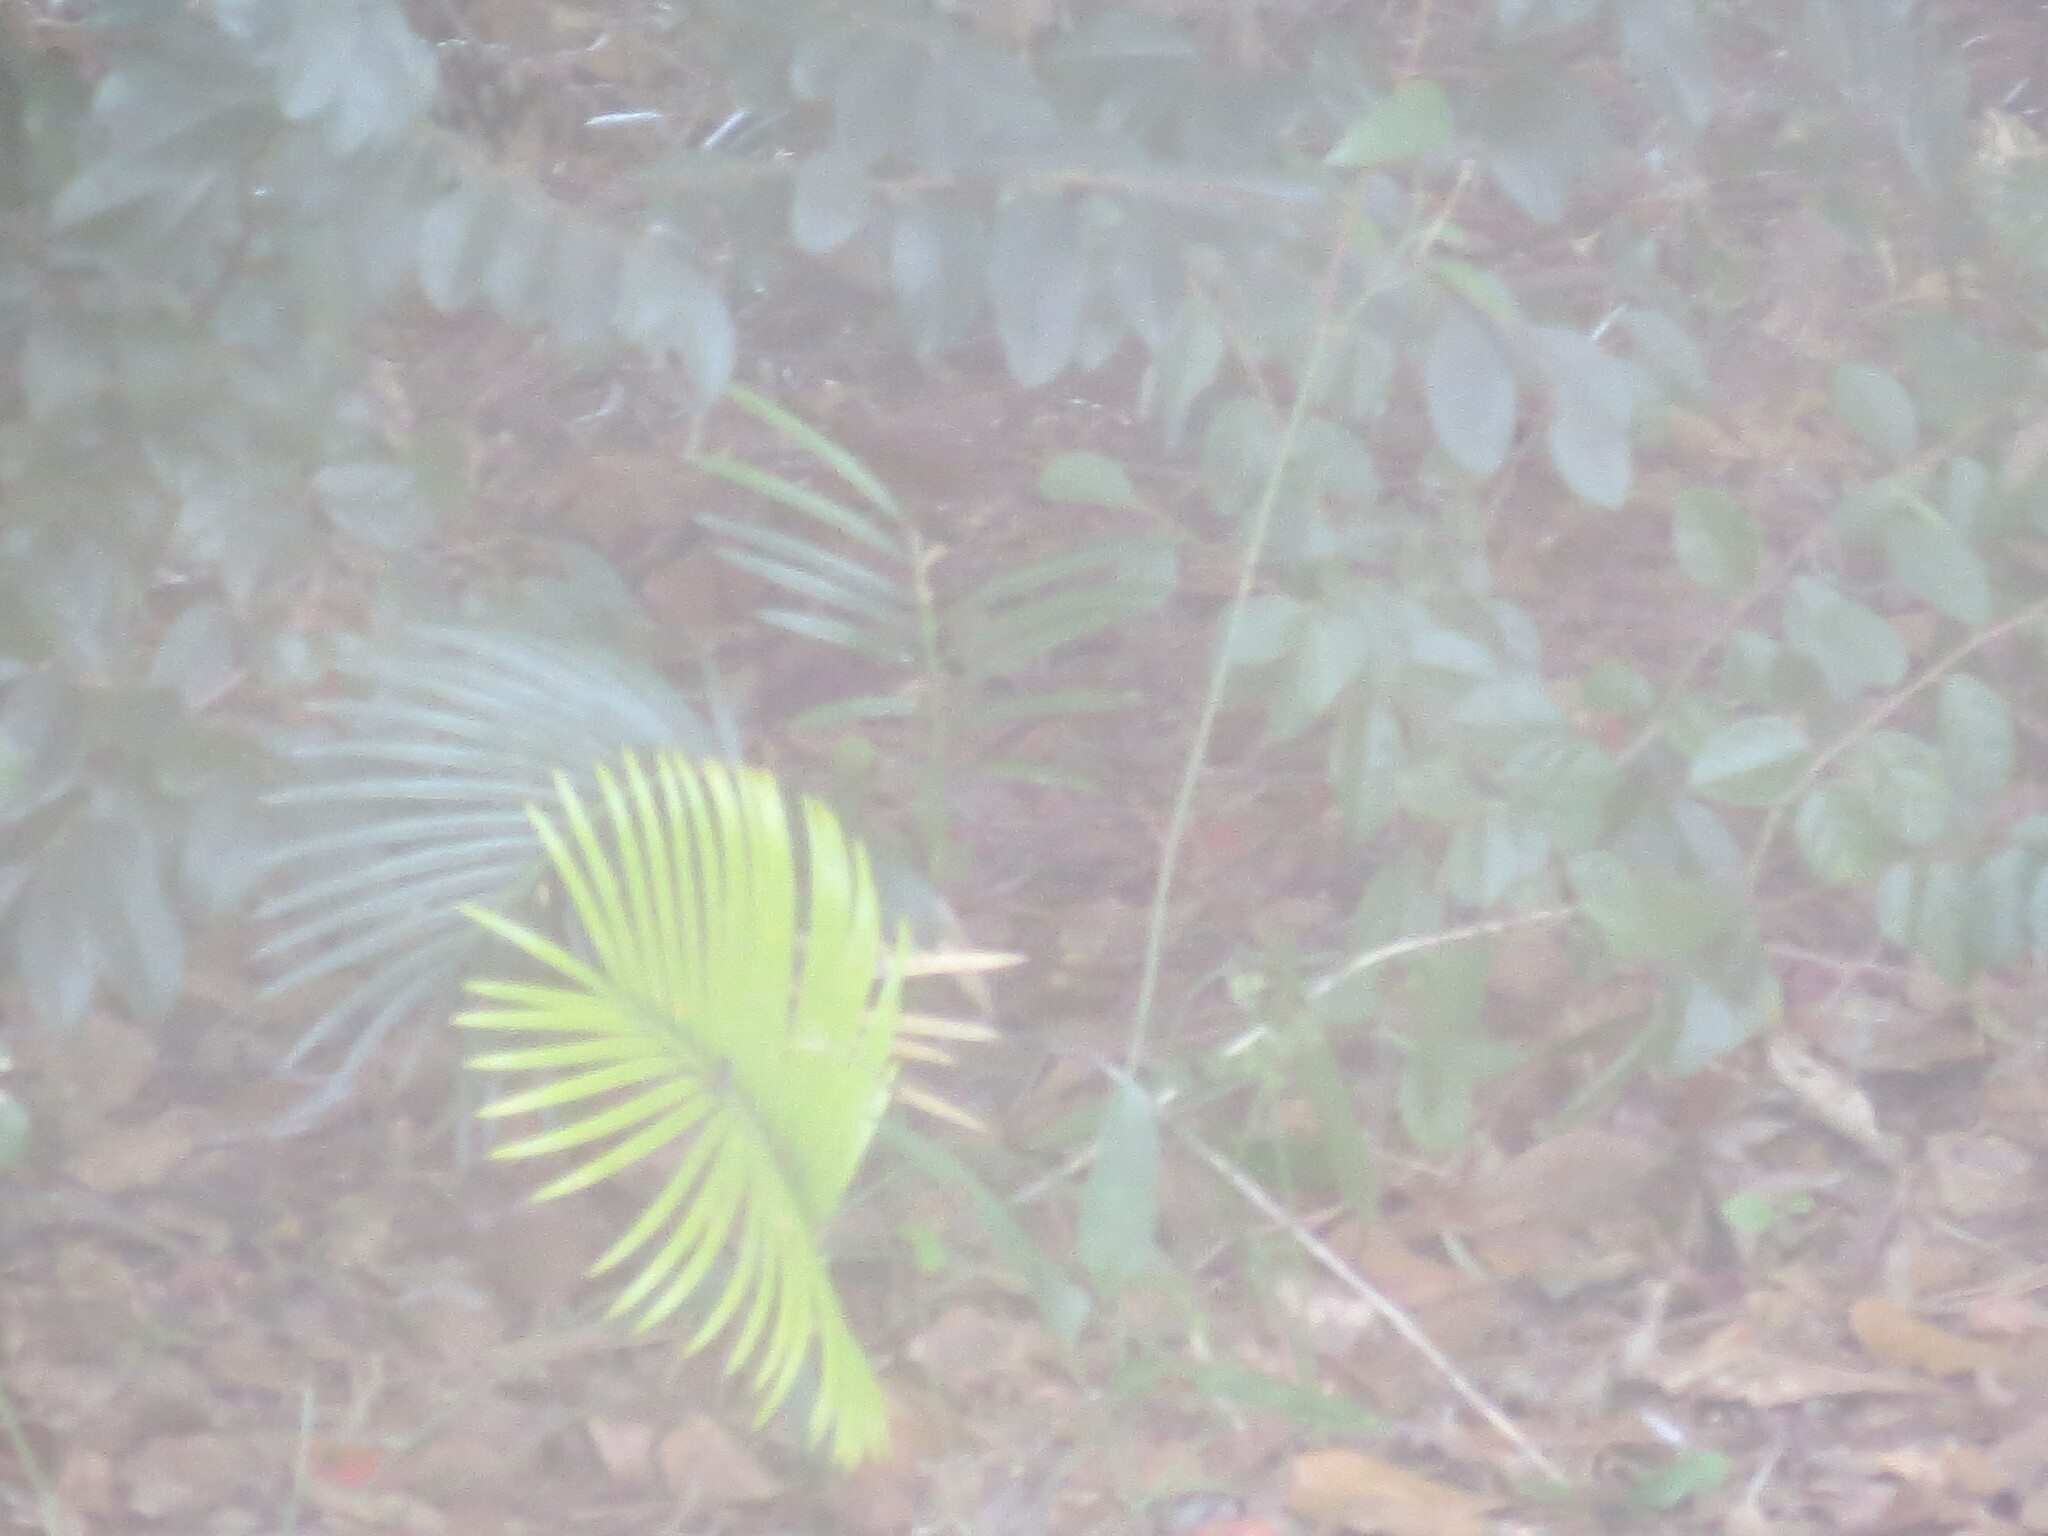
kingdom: Plantae
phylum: Tracheophyta
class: Cycadopsida
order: Cycadales
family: Cycadaceae
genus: Cycas
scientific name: Cycas revoluta
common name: Sago palm
